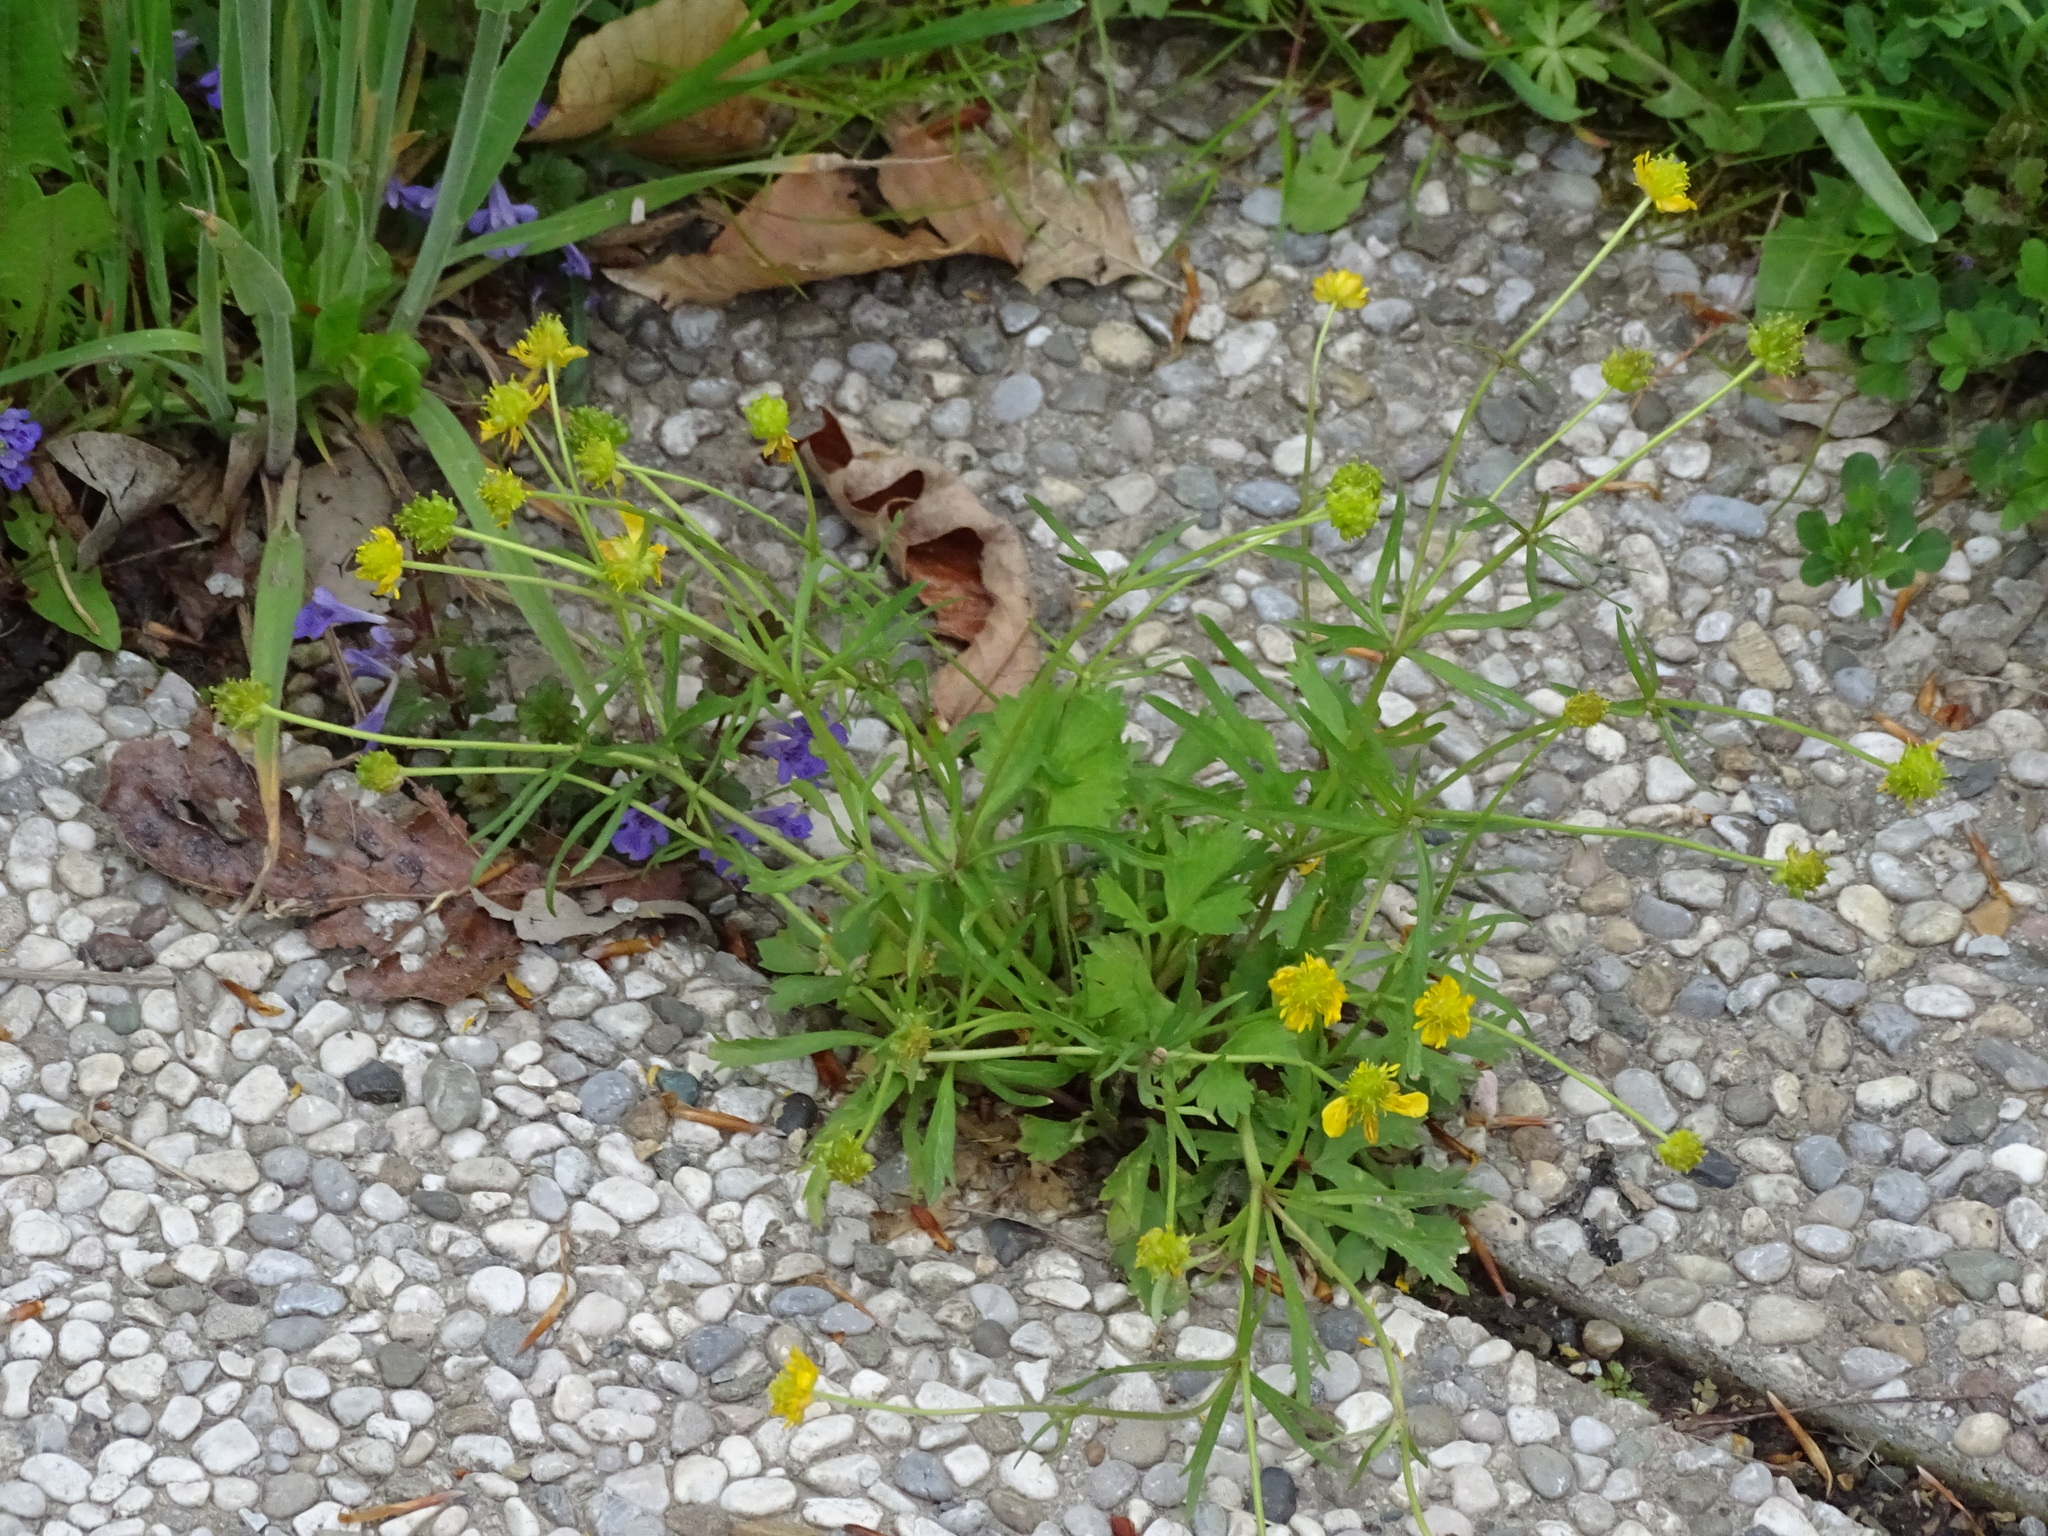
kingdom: Plantae
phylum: Tracheophyta
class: Magnoliopsida
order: Ranunculales
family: Ranunculaceae
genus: Ranunculus
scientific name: Ranunculus auricomus
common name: Goldilocks buttercup
